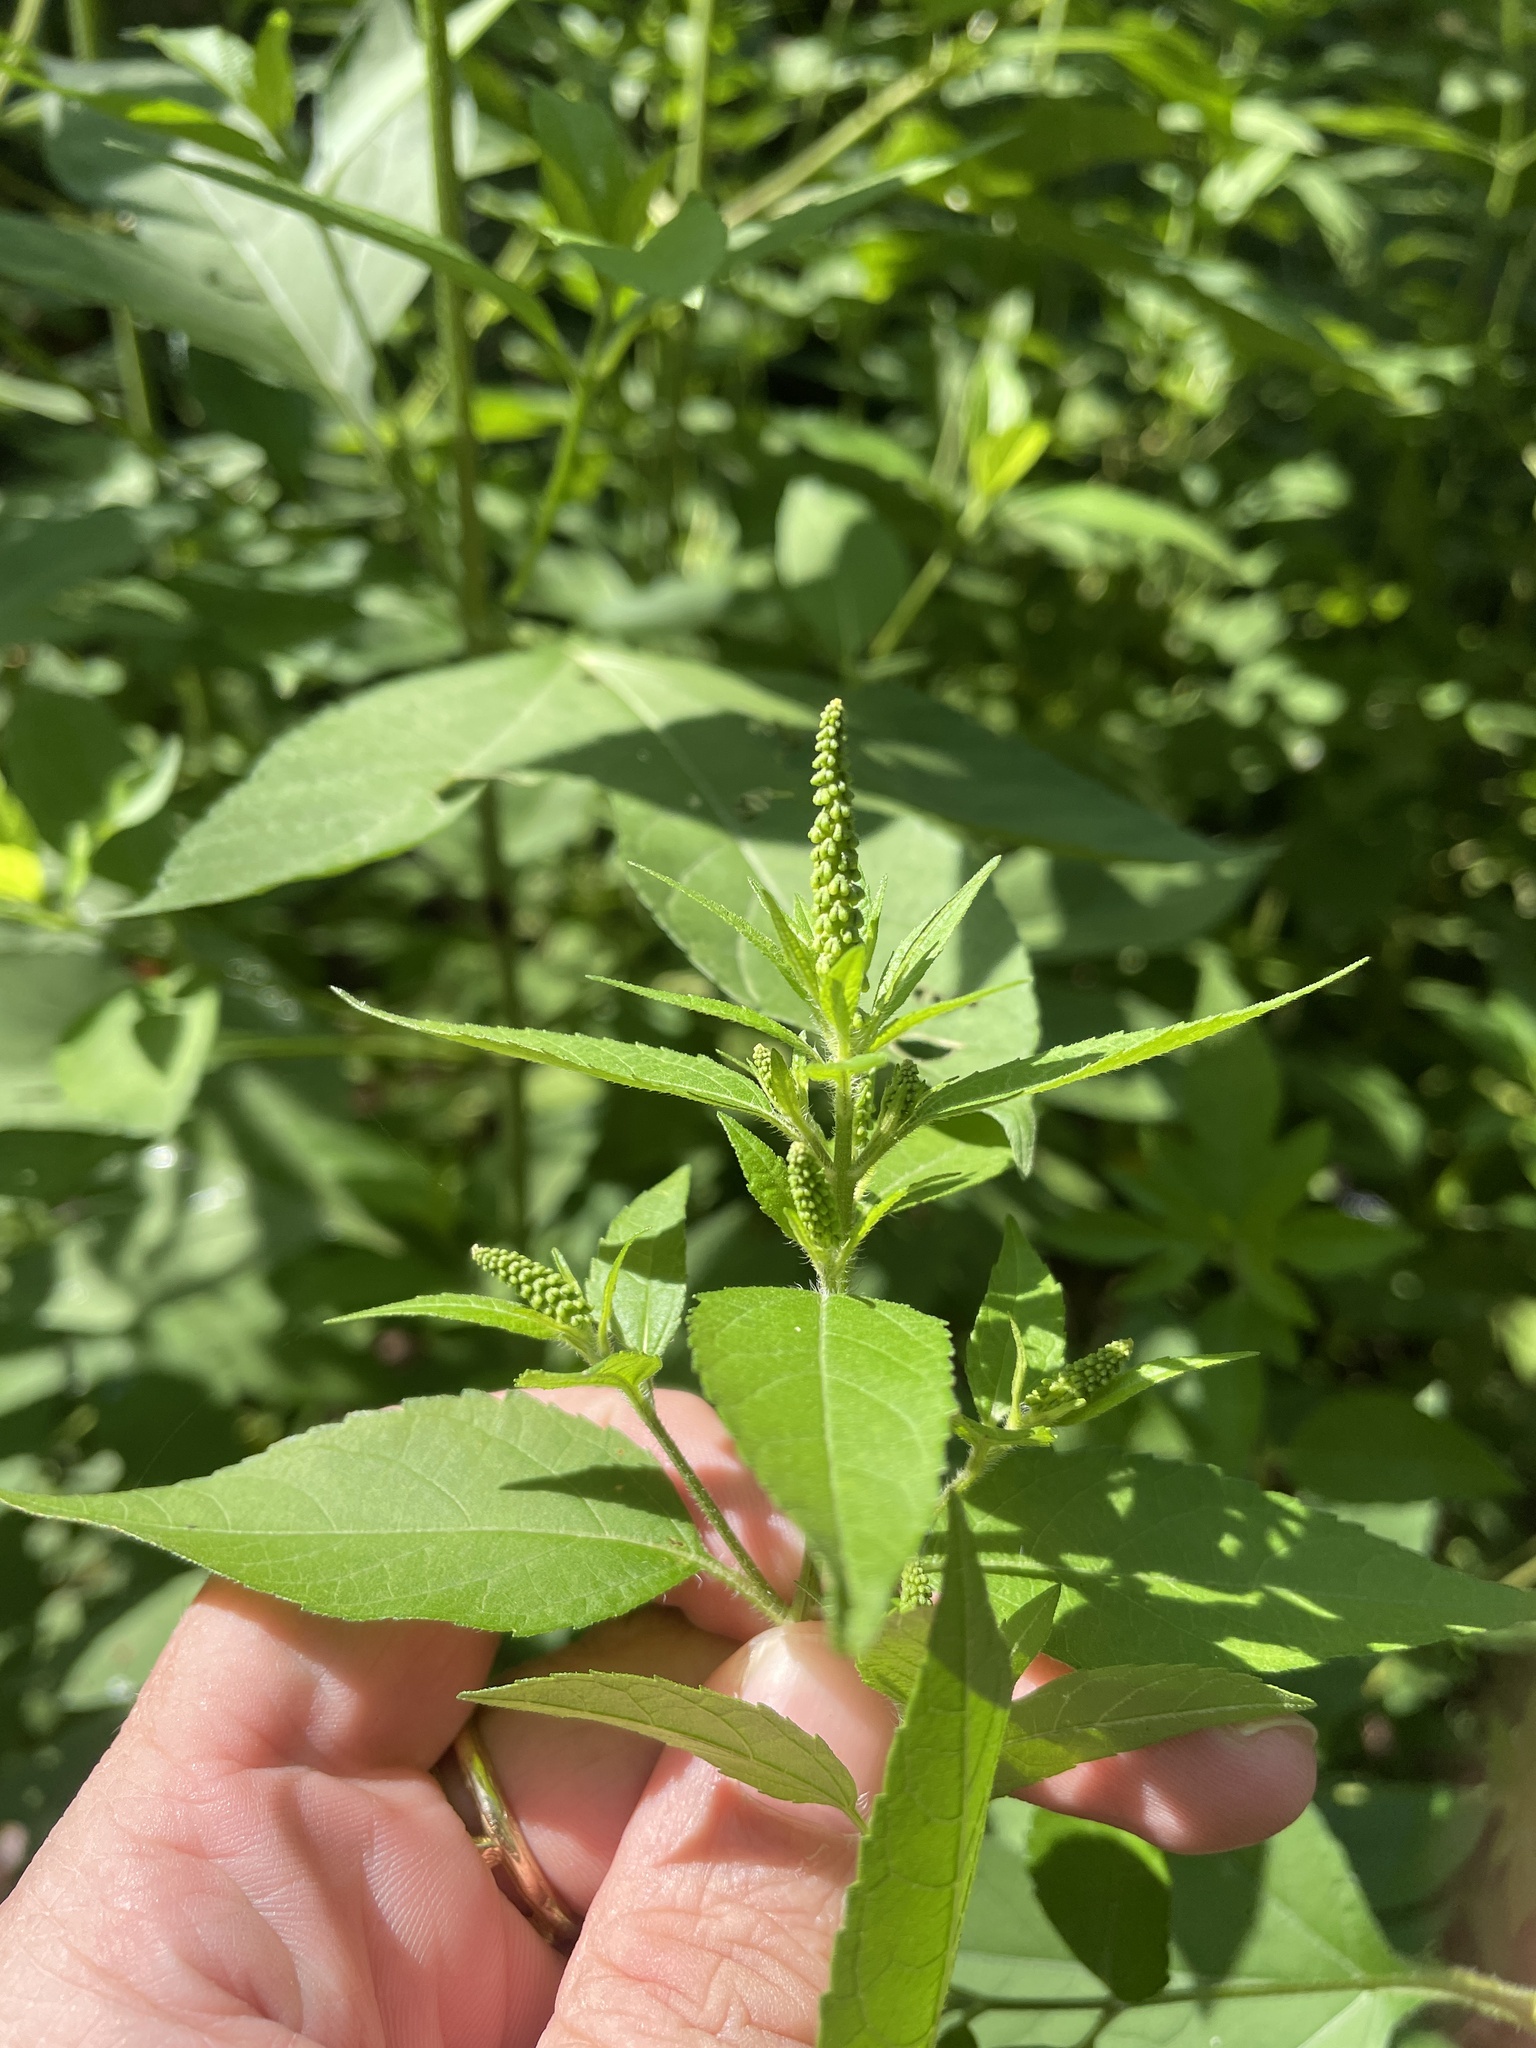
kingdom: Plantae
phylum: Tracheophyta
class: Magnoliopsida
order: Asterales
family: Asteraceae
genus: Ambrosia
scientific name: Ambrosia trifida
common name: Giant ragweed
